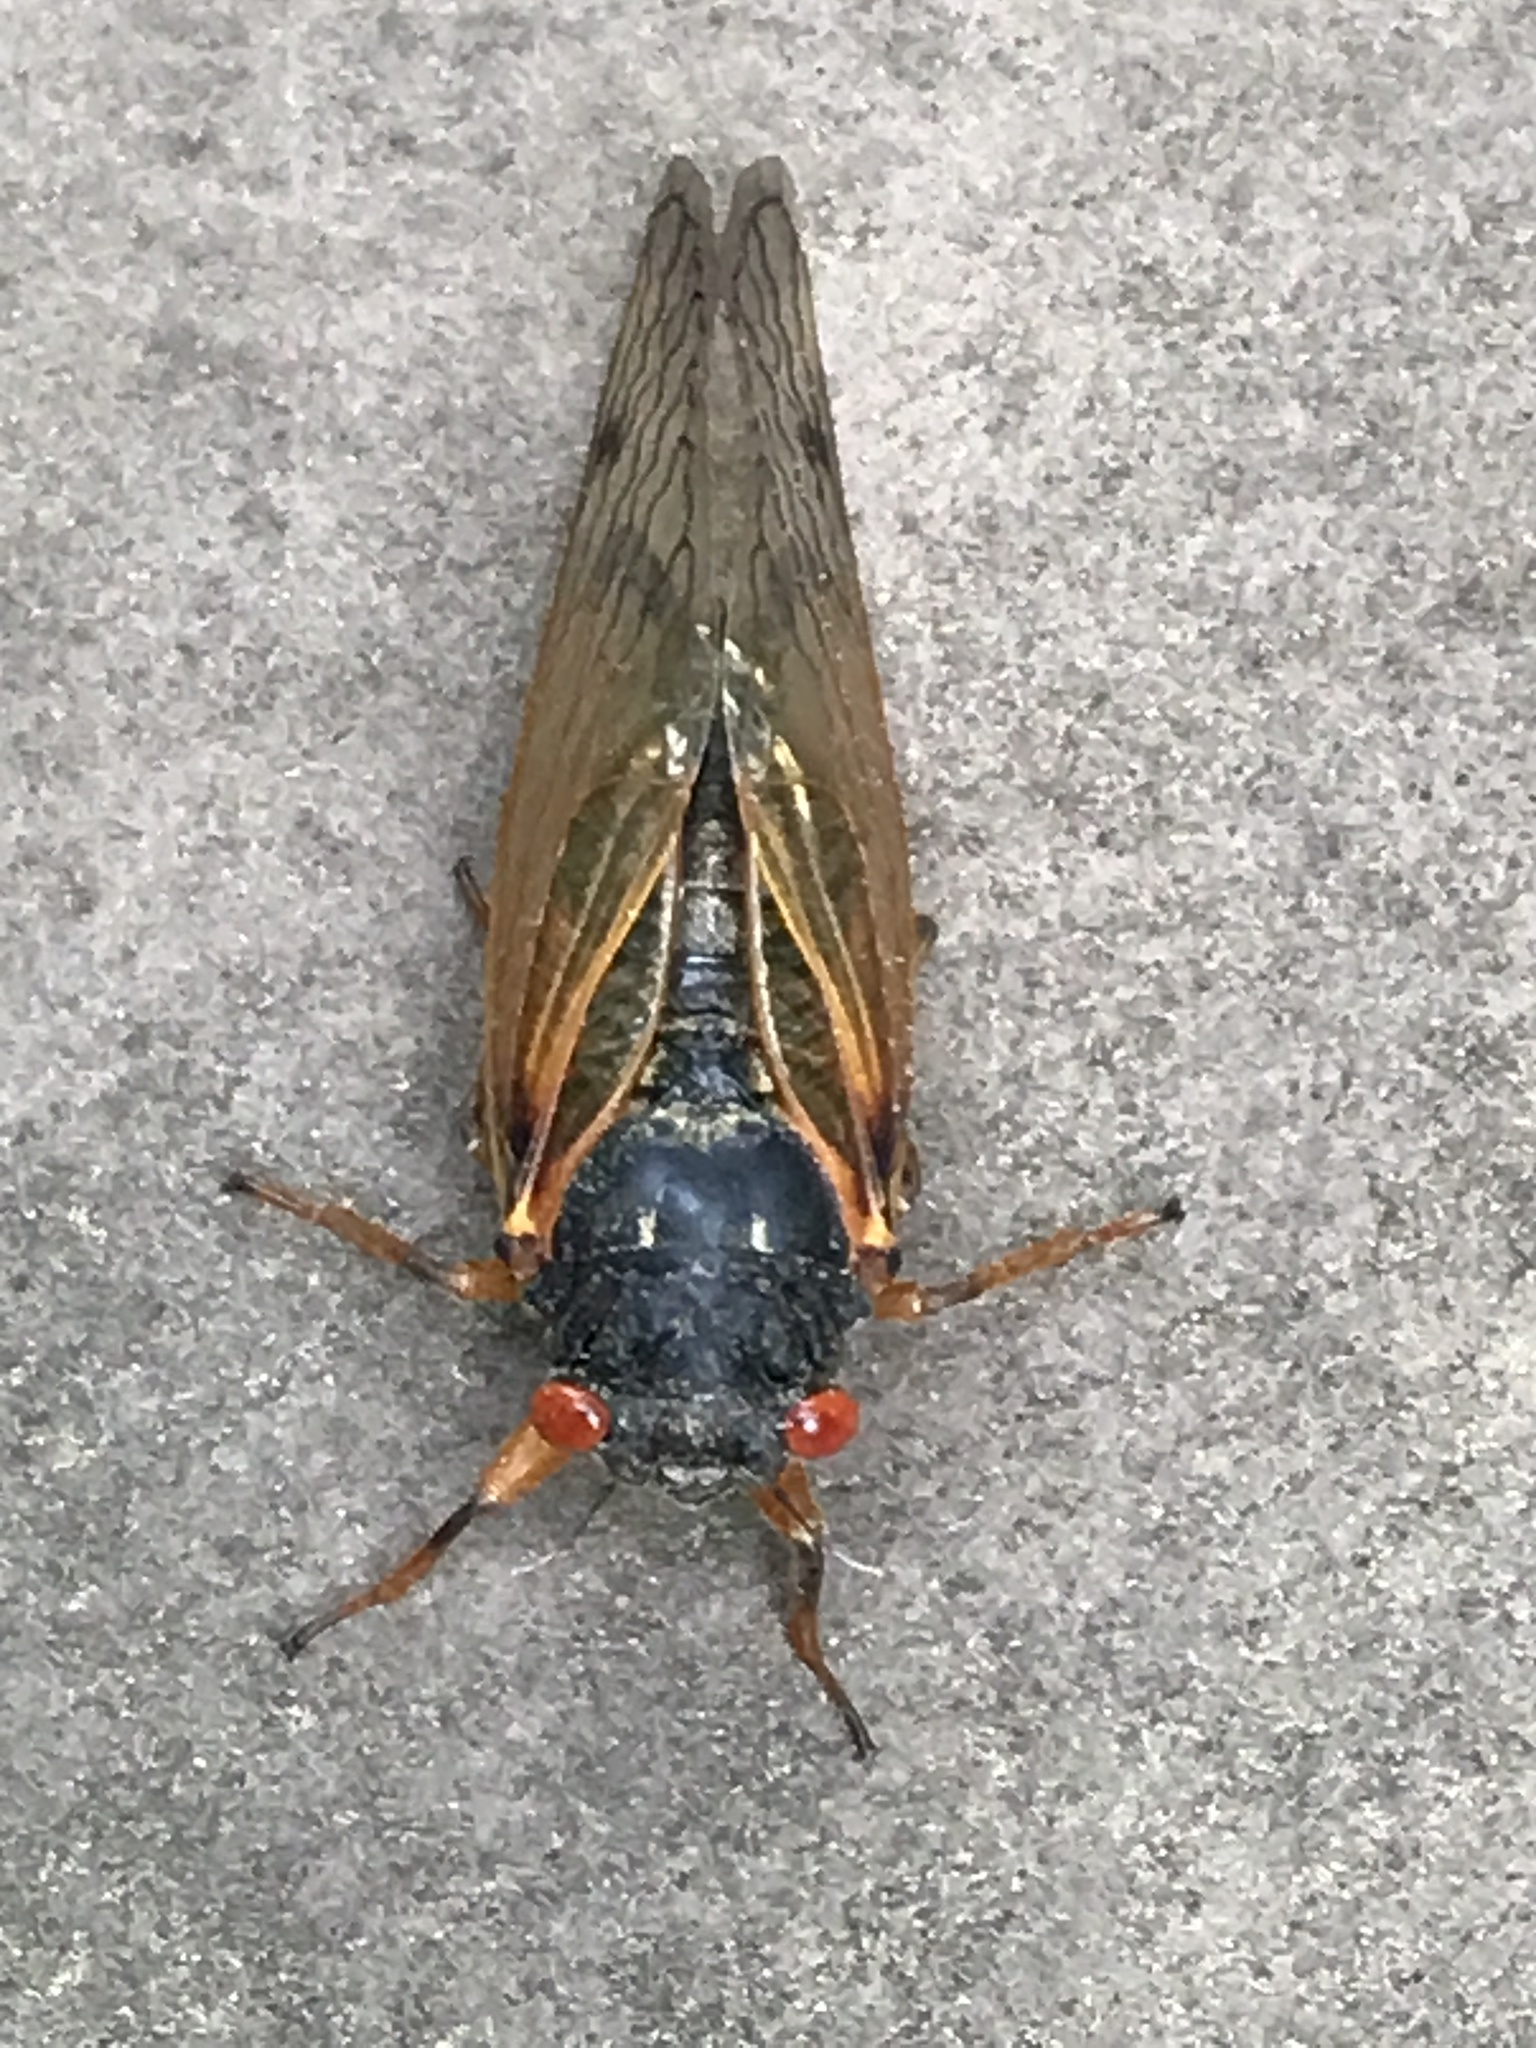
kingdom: Animalia
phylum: Arthropoda
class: Insecta
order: Hemiptera
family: Cicadidae
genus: Magicicada
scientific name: Magicicada
